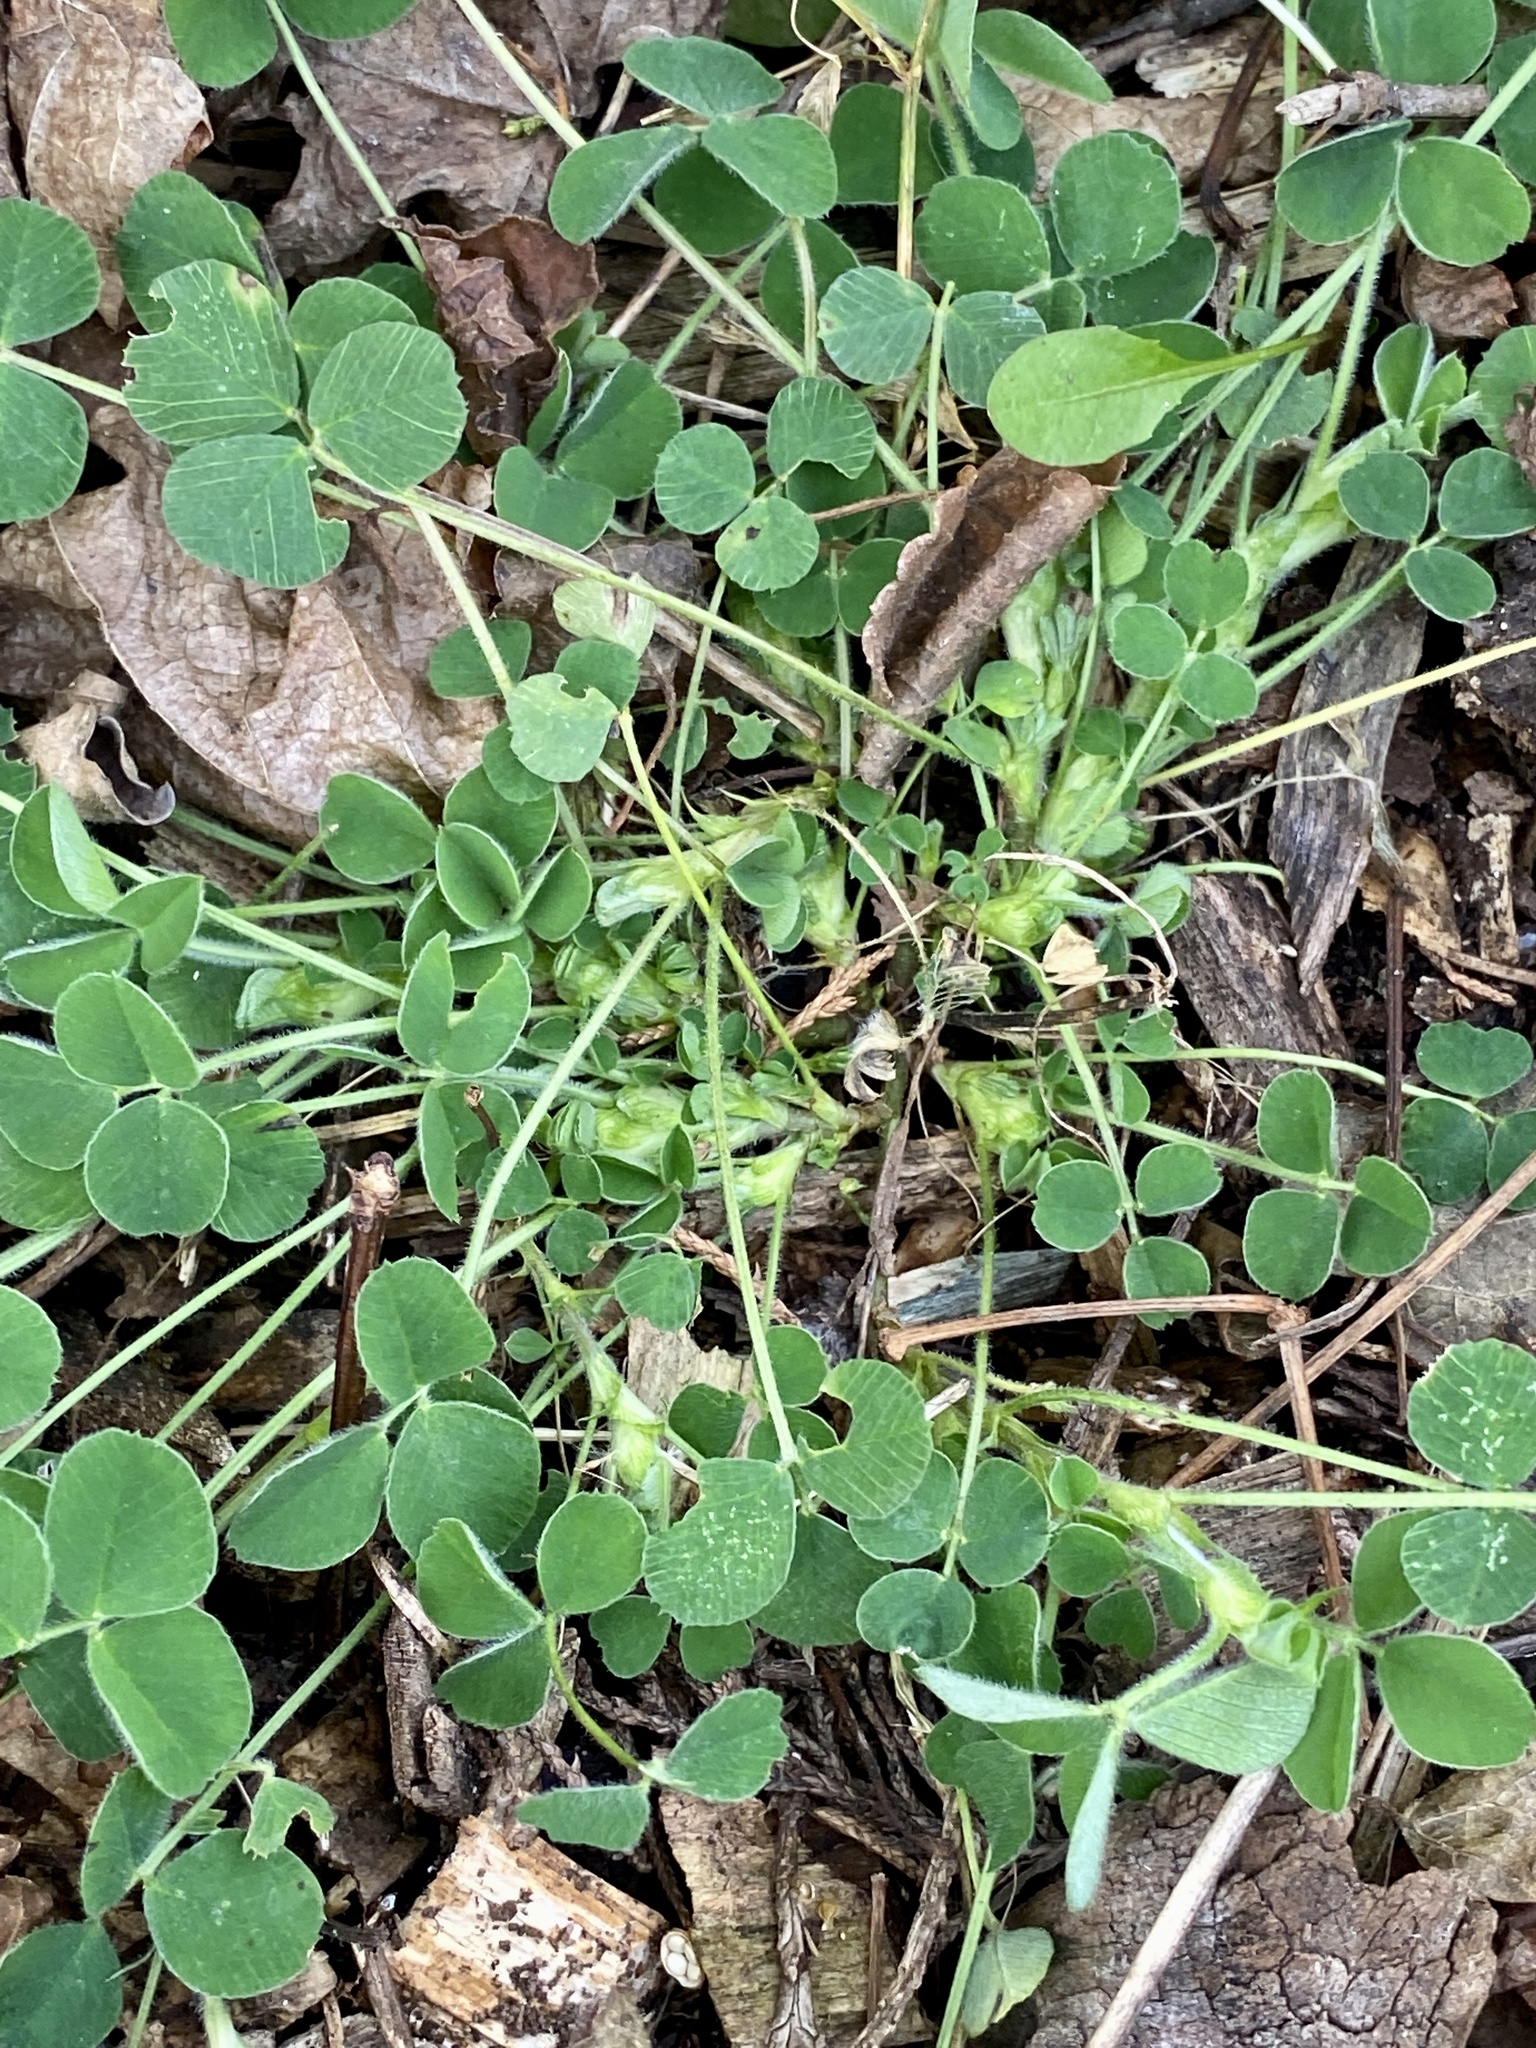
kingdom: Plantae
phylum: Tracheophyta
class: Magnoliopsida
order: Fabales
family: Fabaceae
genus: Medicago
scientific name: Medicago lupulina
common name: Black medick
